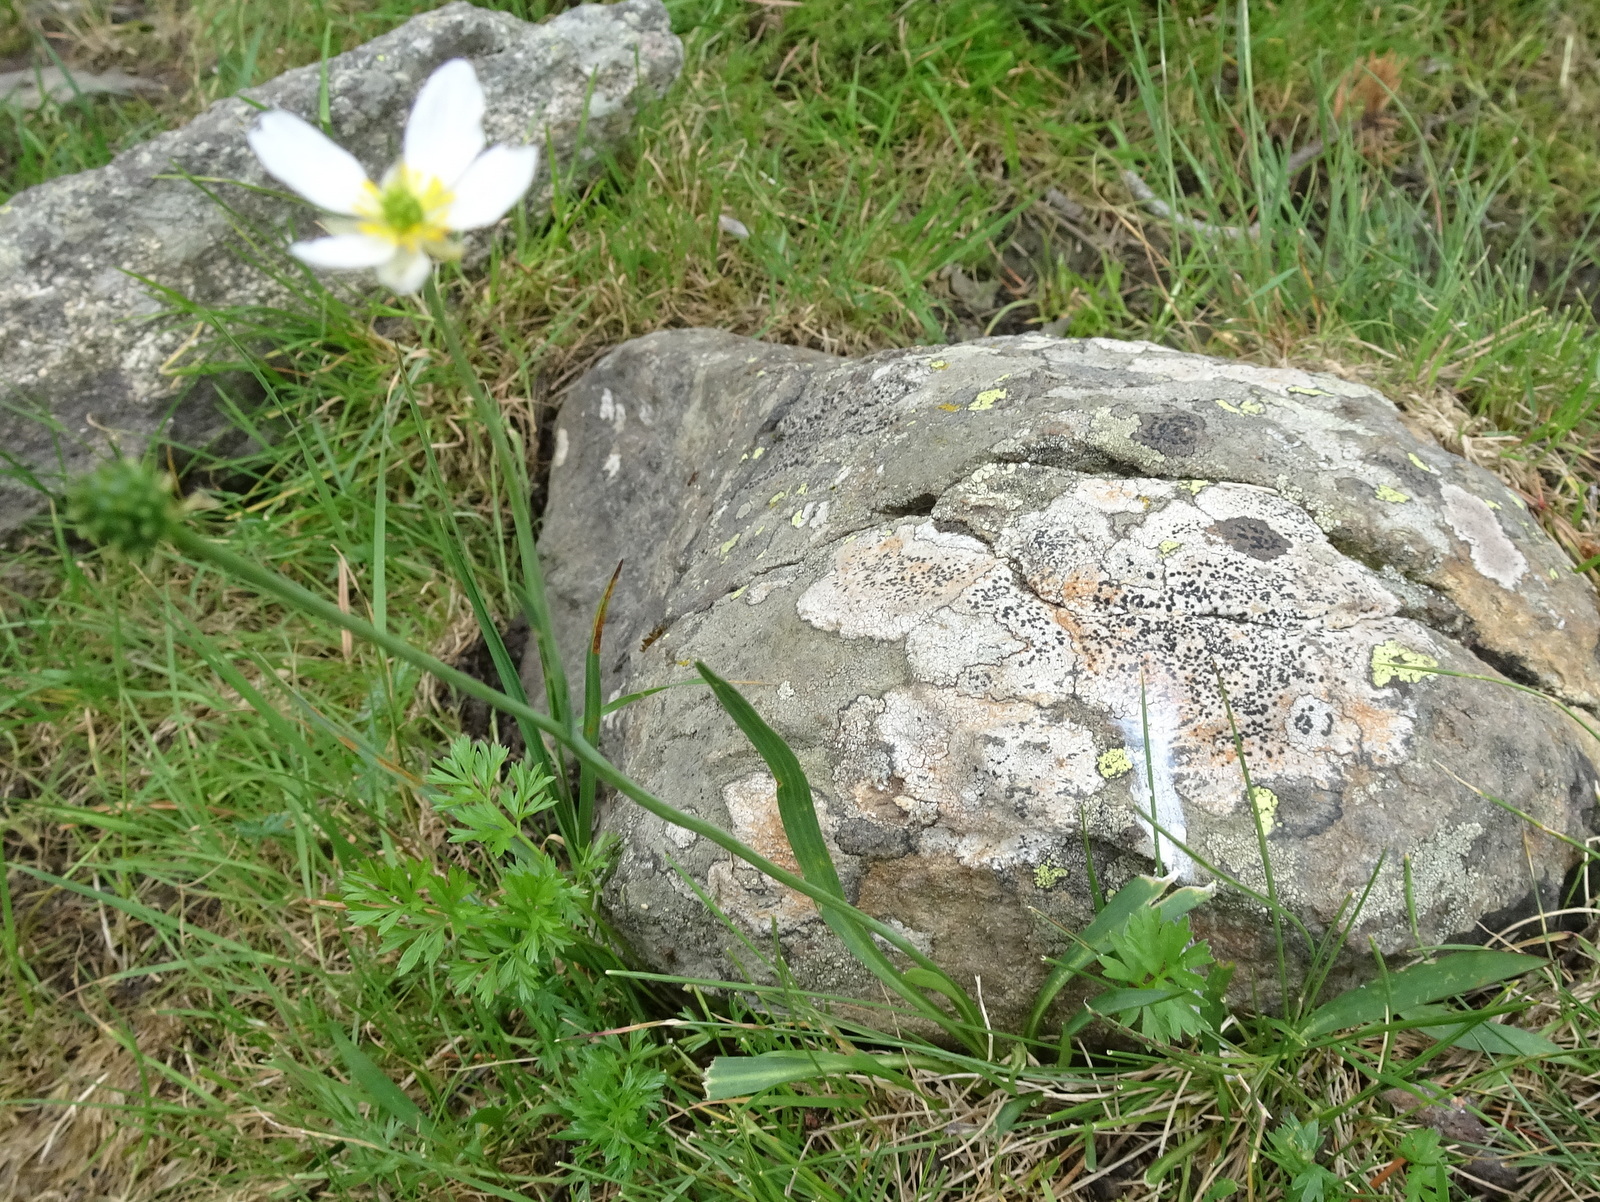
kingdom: Plantae
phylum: Tracheophyta
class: Magnoliopsida
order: Ranunculales
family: Ranunculaceae
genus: Ranunculus
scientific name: Ranunculus pyrenaeus
